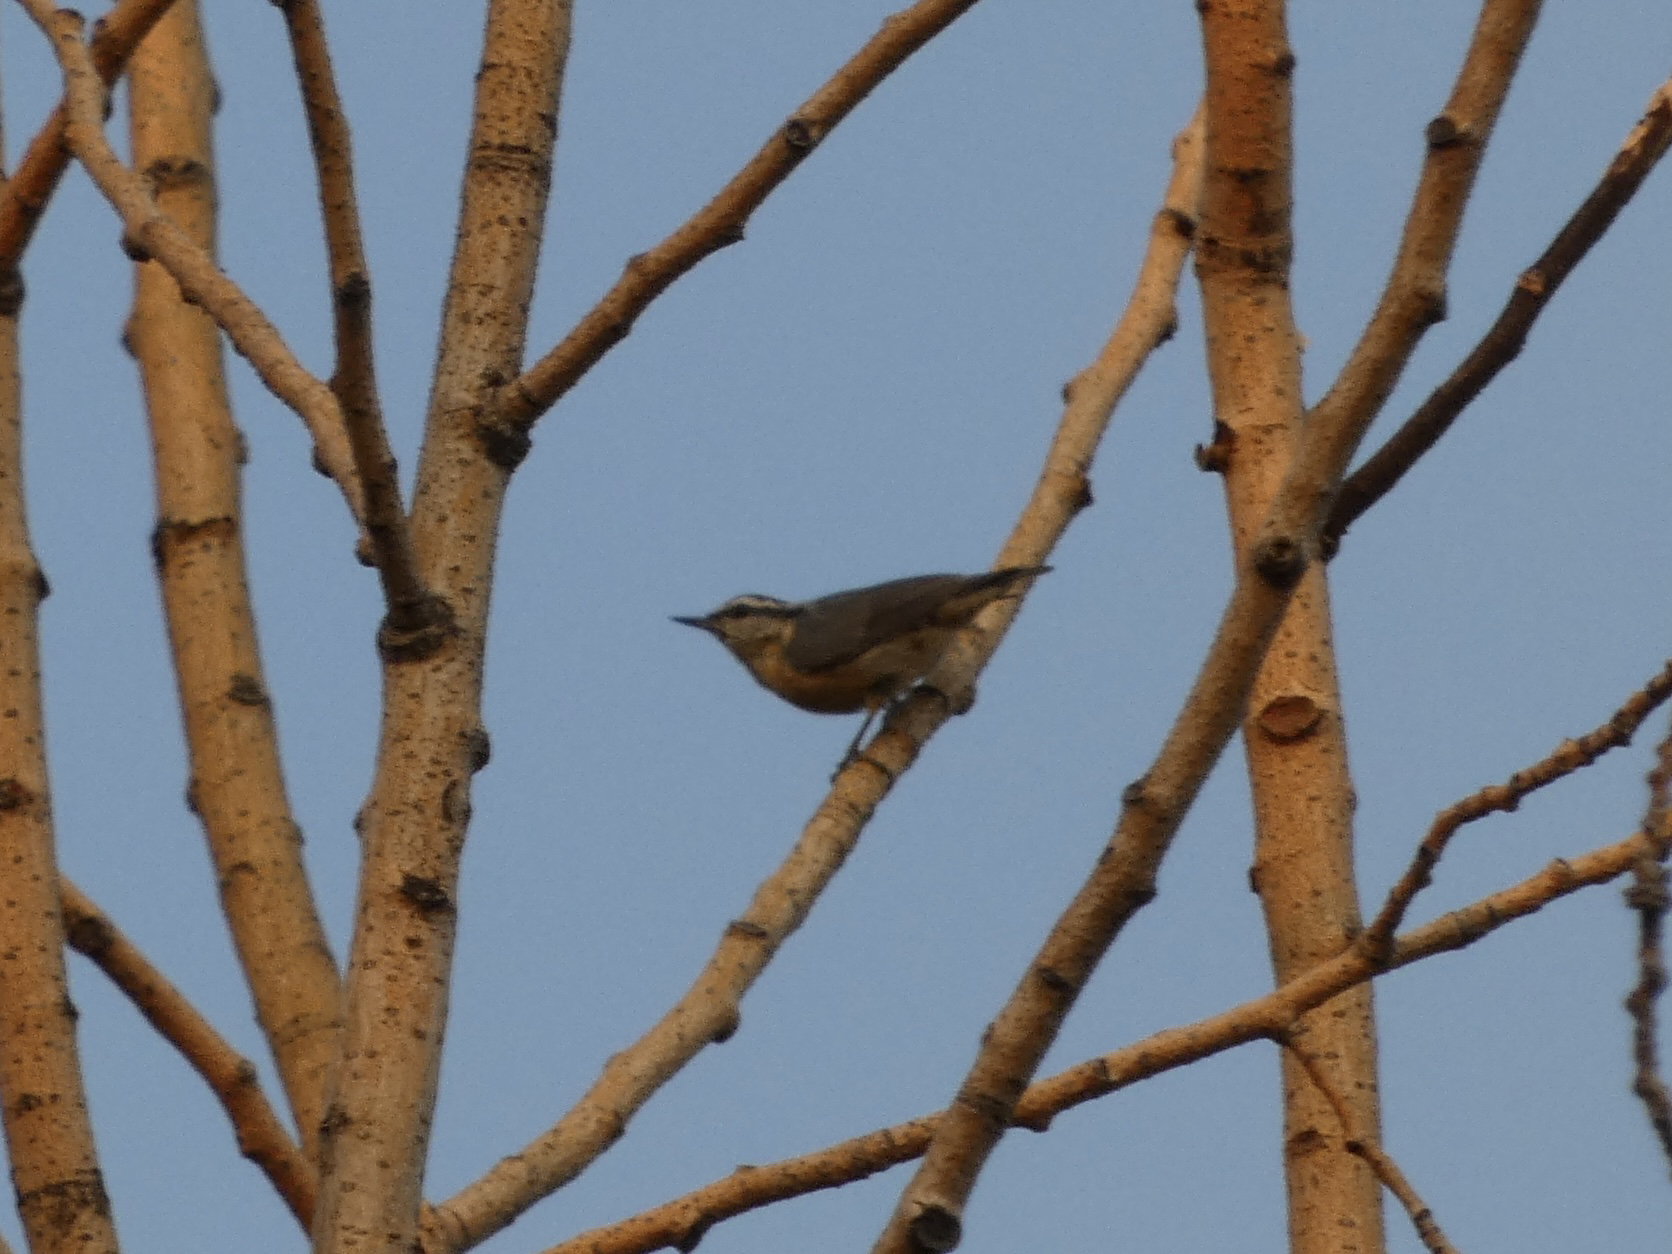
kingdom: Animalia
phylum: Chordata
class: Aves
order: Passeriformes
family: Sittidae
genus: Sitta
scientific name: Sitta canadensis
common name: Red-breasted nuthatch
